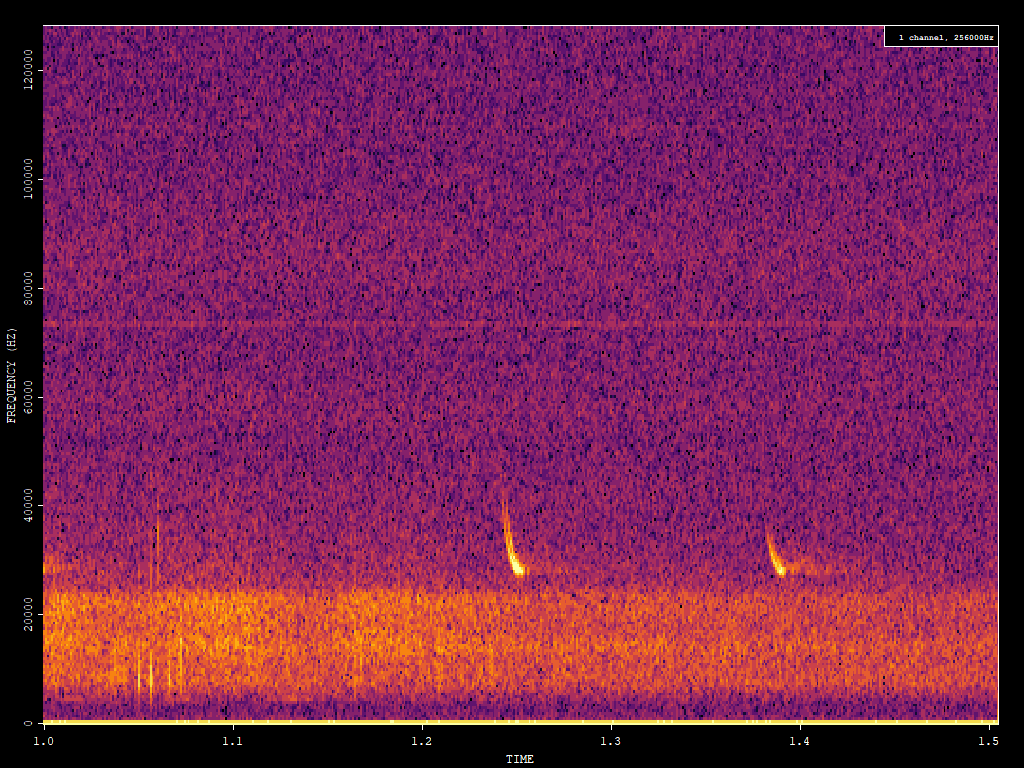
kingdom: Animalia
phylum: Chordata
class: Mammalia
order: Chiroptera
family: Vespertilionidae
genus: Eptesicus
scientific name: Eptesicus fuscus
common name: Big brown bat
